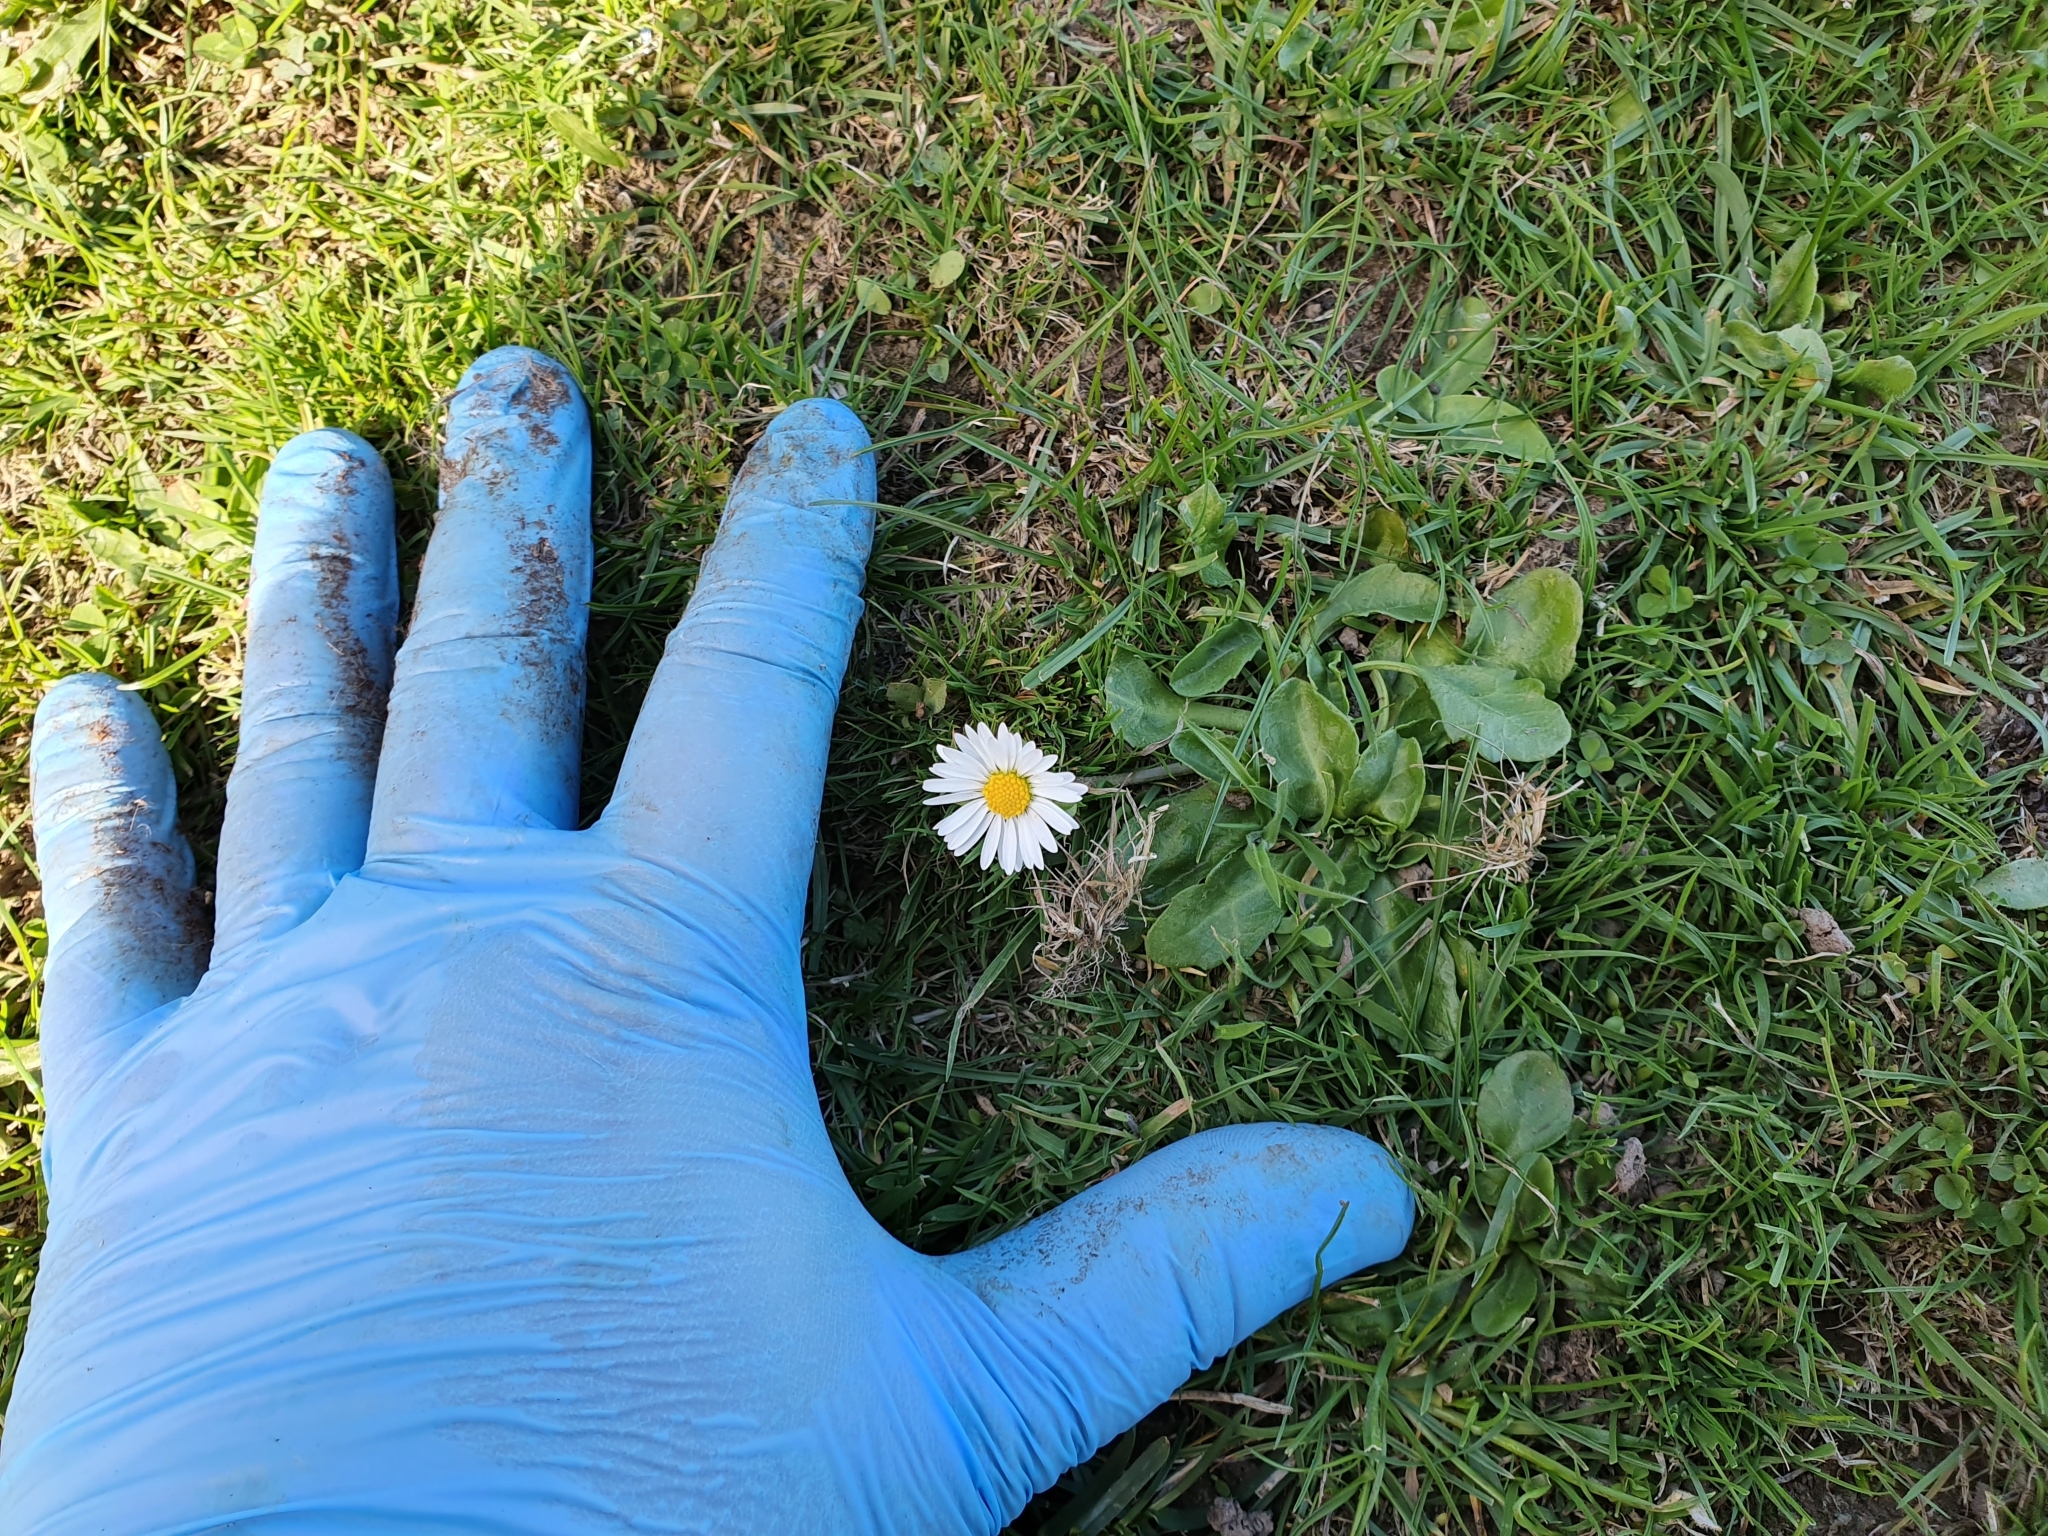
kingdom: Plantae
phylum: Tracheophyta
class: Magnoliopsida
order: Asterales
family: Asteraceae
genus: Bellis
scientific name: Bellis perennis
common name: Lawndaisy
